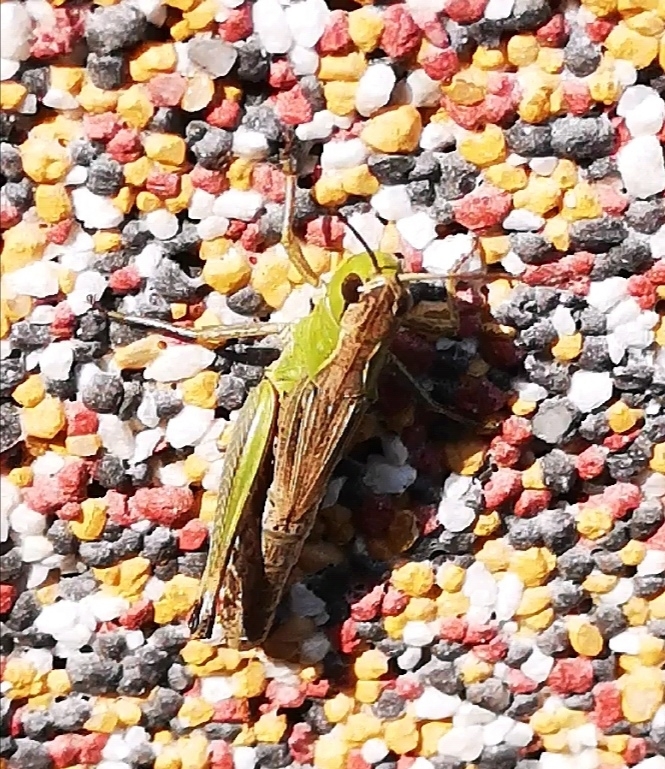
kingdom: Animalia
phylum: Arthropoda
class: Insecta
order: Orthoptera
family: Acrididae
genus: Pseudochorthippus
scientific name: Pseudochorthippus parallelus
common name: Meadow grasshopper
